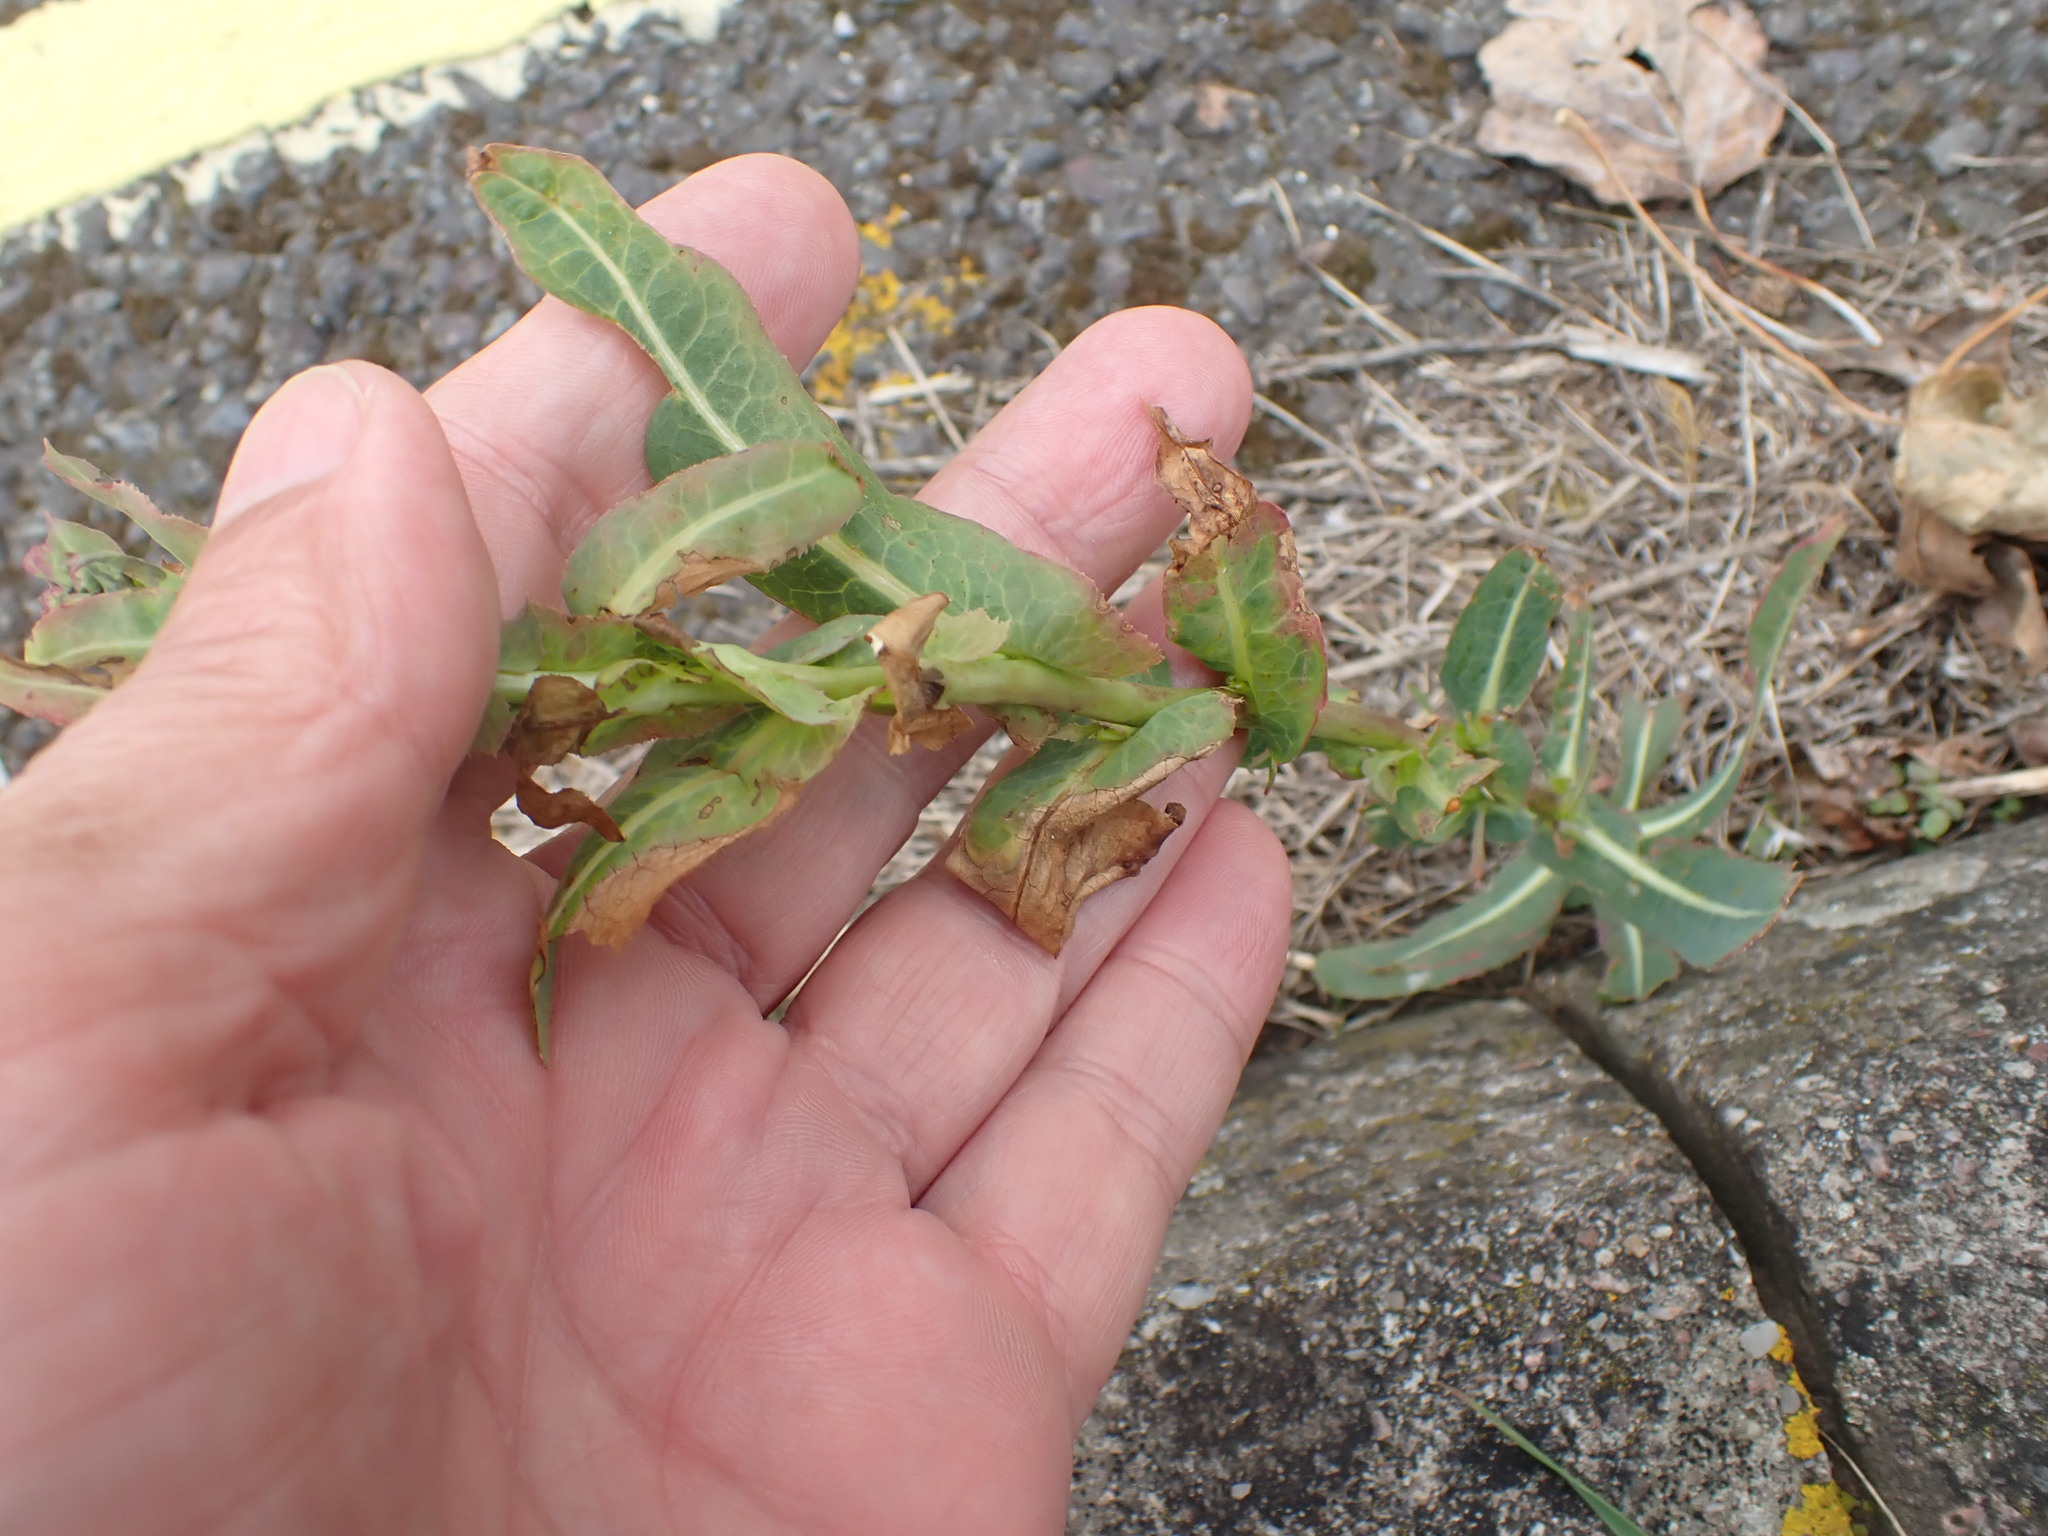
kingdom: Plantae
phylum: Tracheophyta
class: Magnoliopsida
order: Asterales
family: Asteraceae
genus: Lactuca
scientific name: Lactuca serriola
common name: Prickly lettuce
